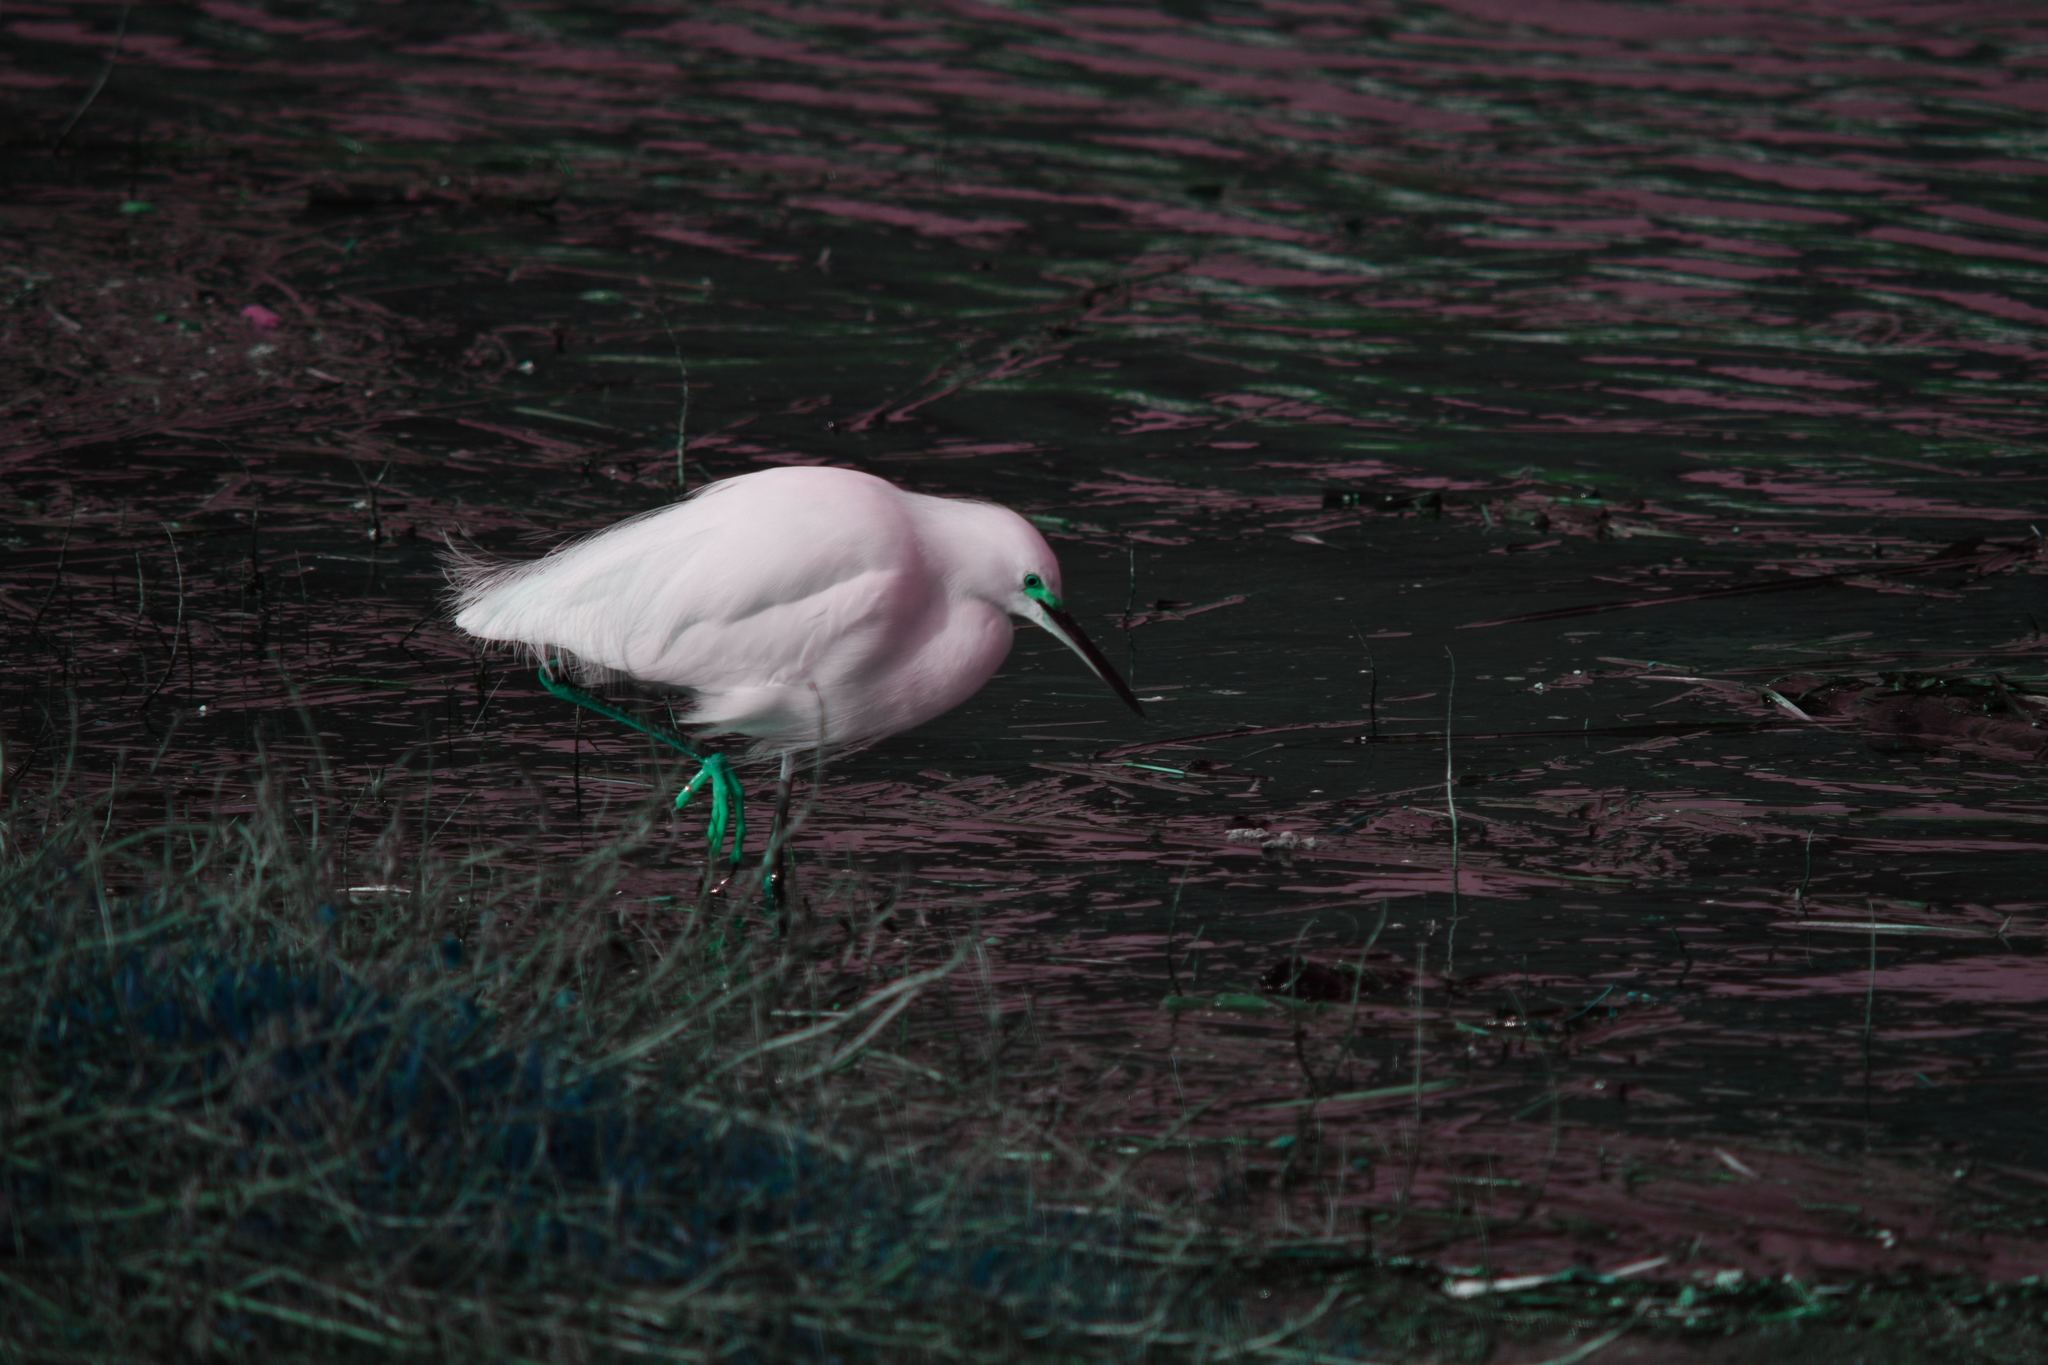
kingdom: Animalia
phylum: Chordata
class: Aves
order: Pelecaniformes
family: Ardeidae
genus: Egretta
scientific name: Egretta thula
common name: Snowy egret
